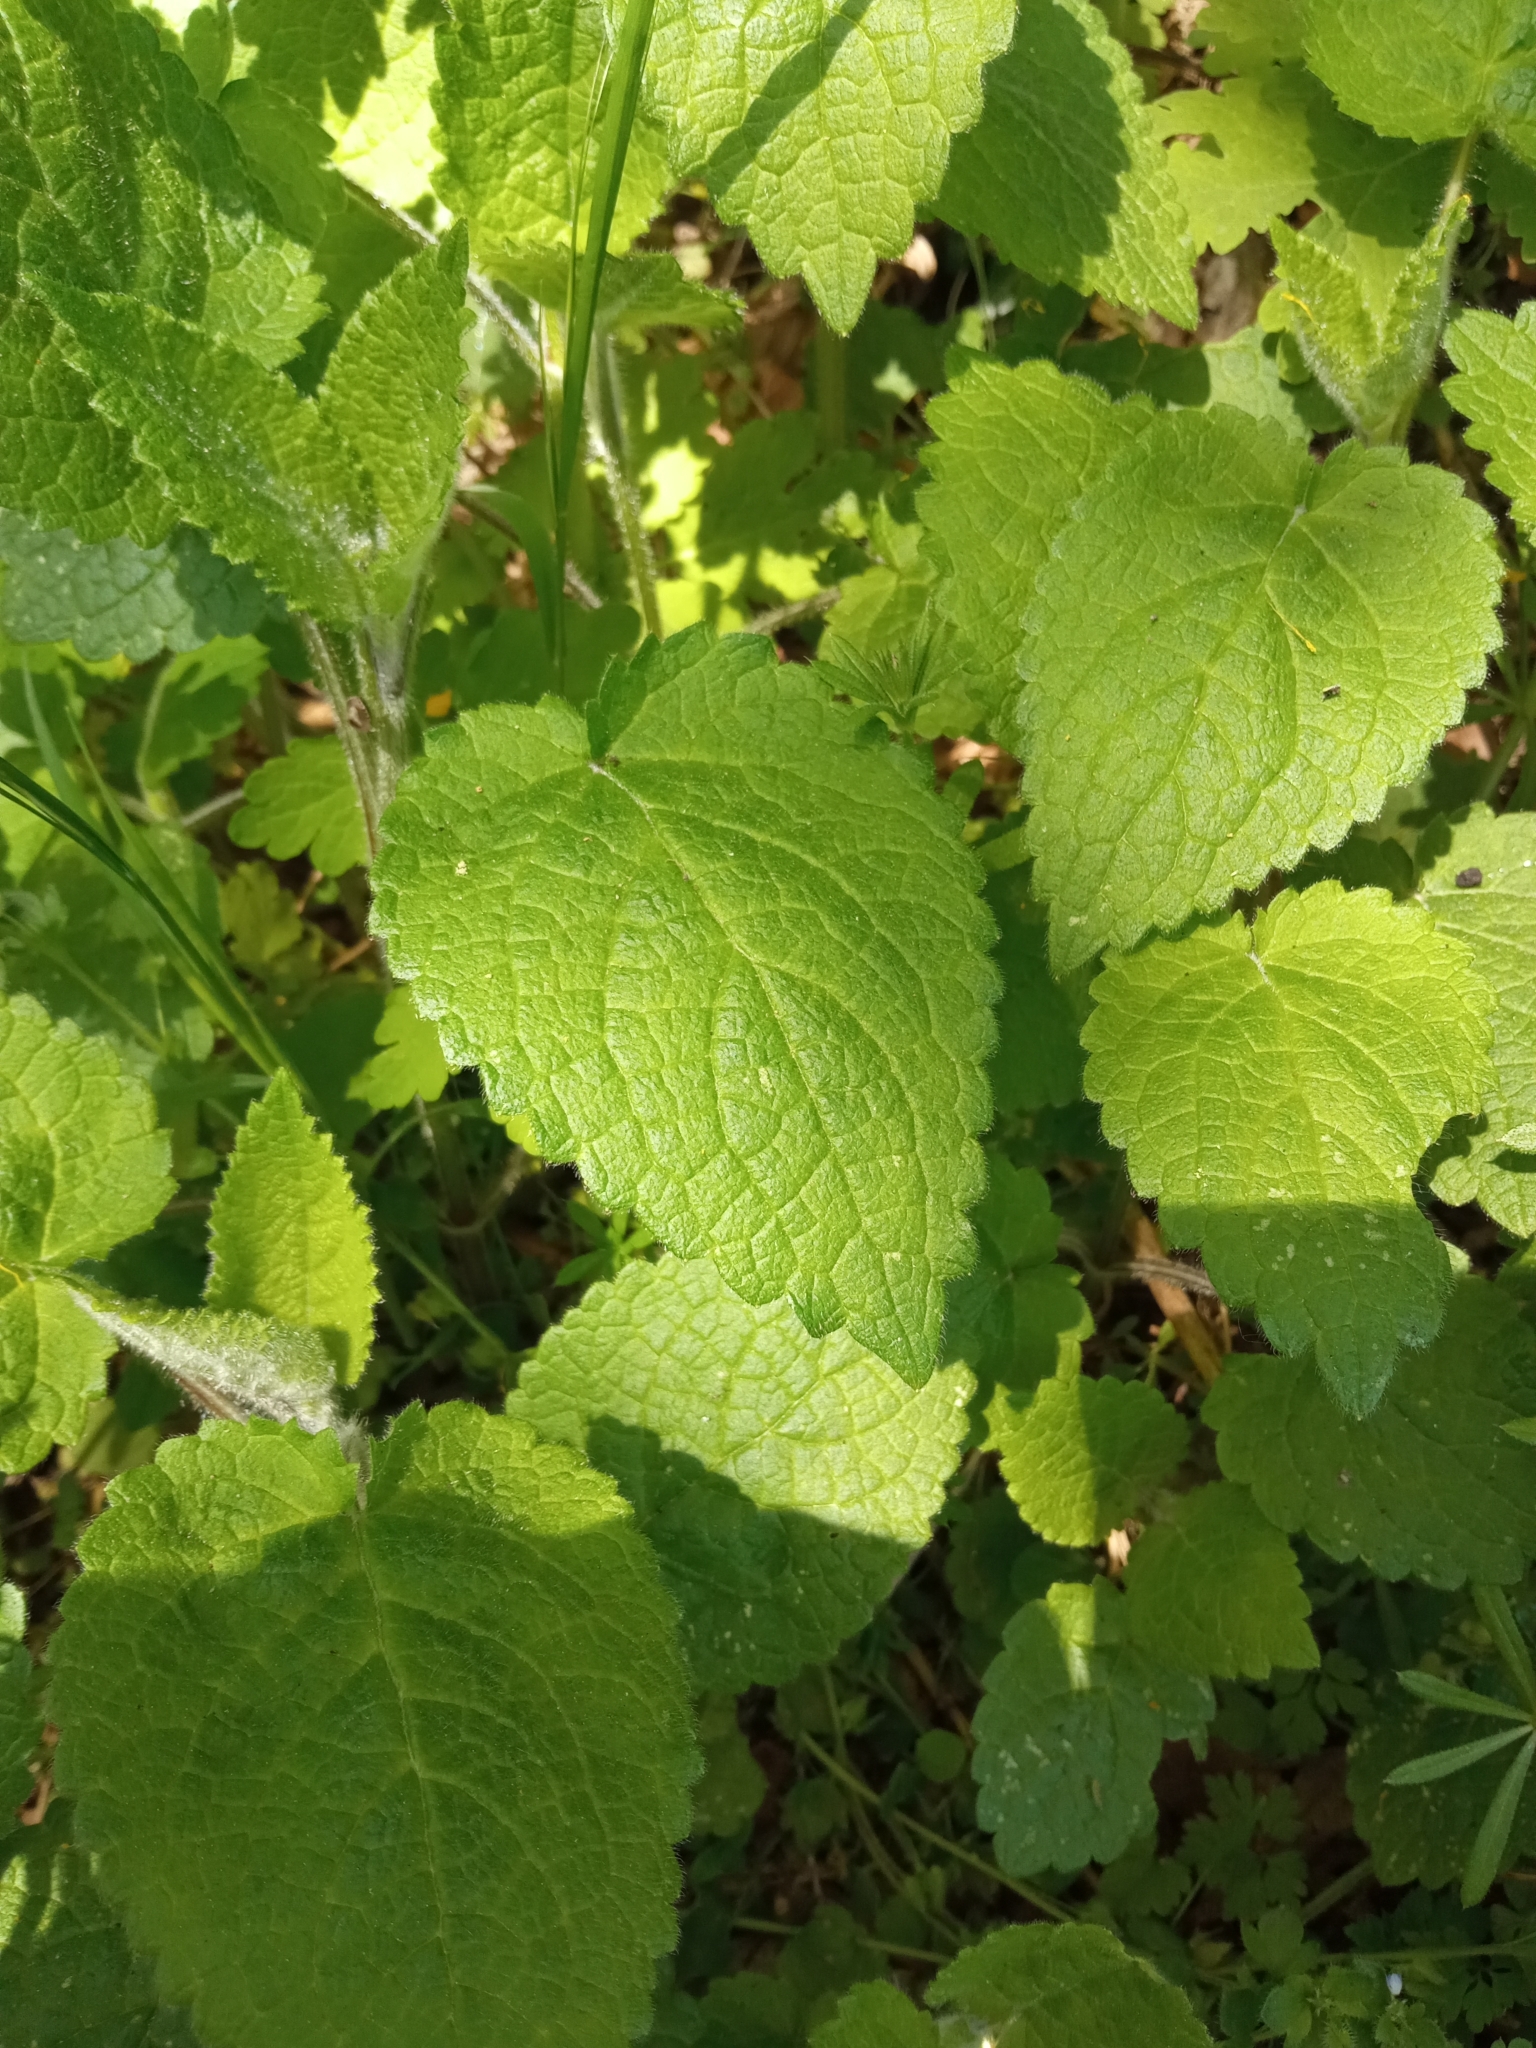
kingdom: Plantae
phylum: Tracheophyta
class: Magnoliopsida
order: Lamiales
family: Lamiaceae
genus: Stachys
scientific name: Stachys sylvatica
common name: Hedge woundwort
